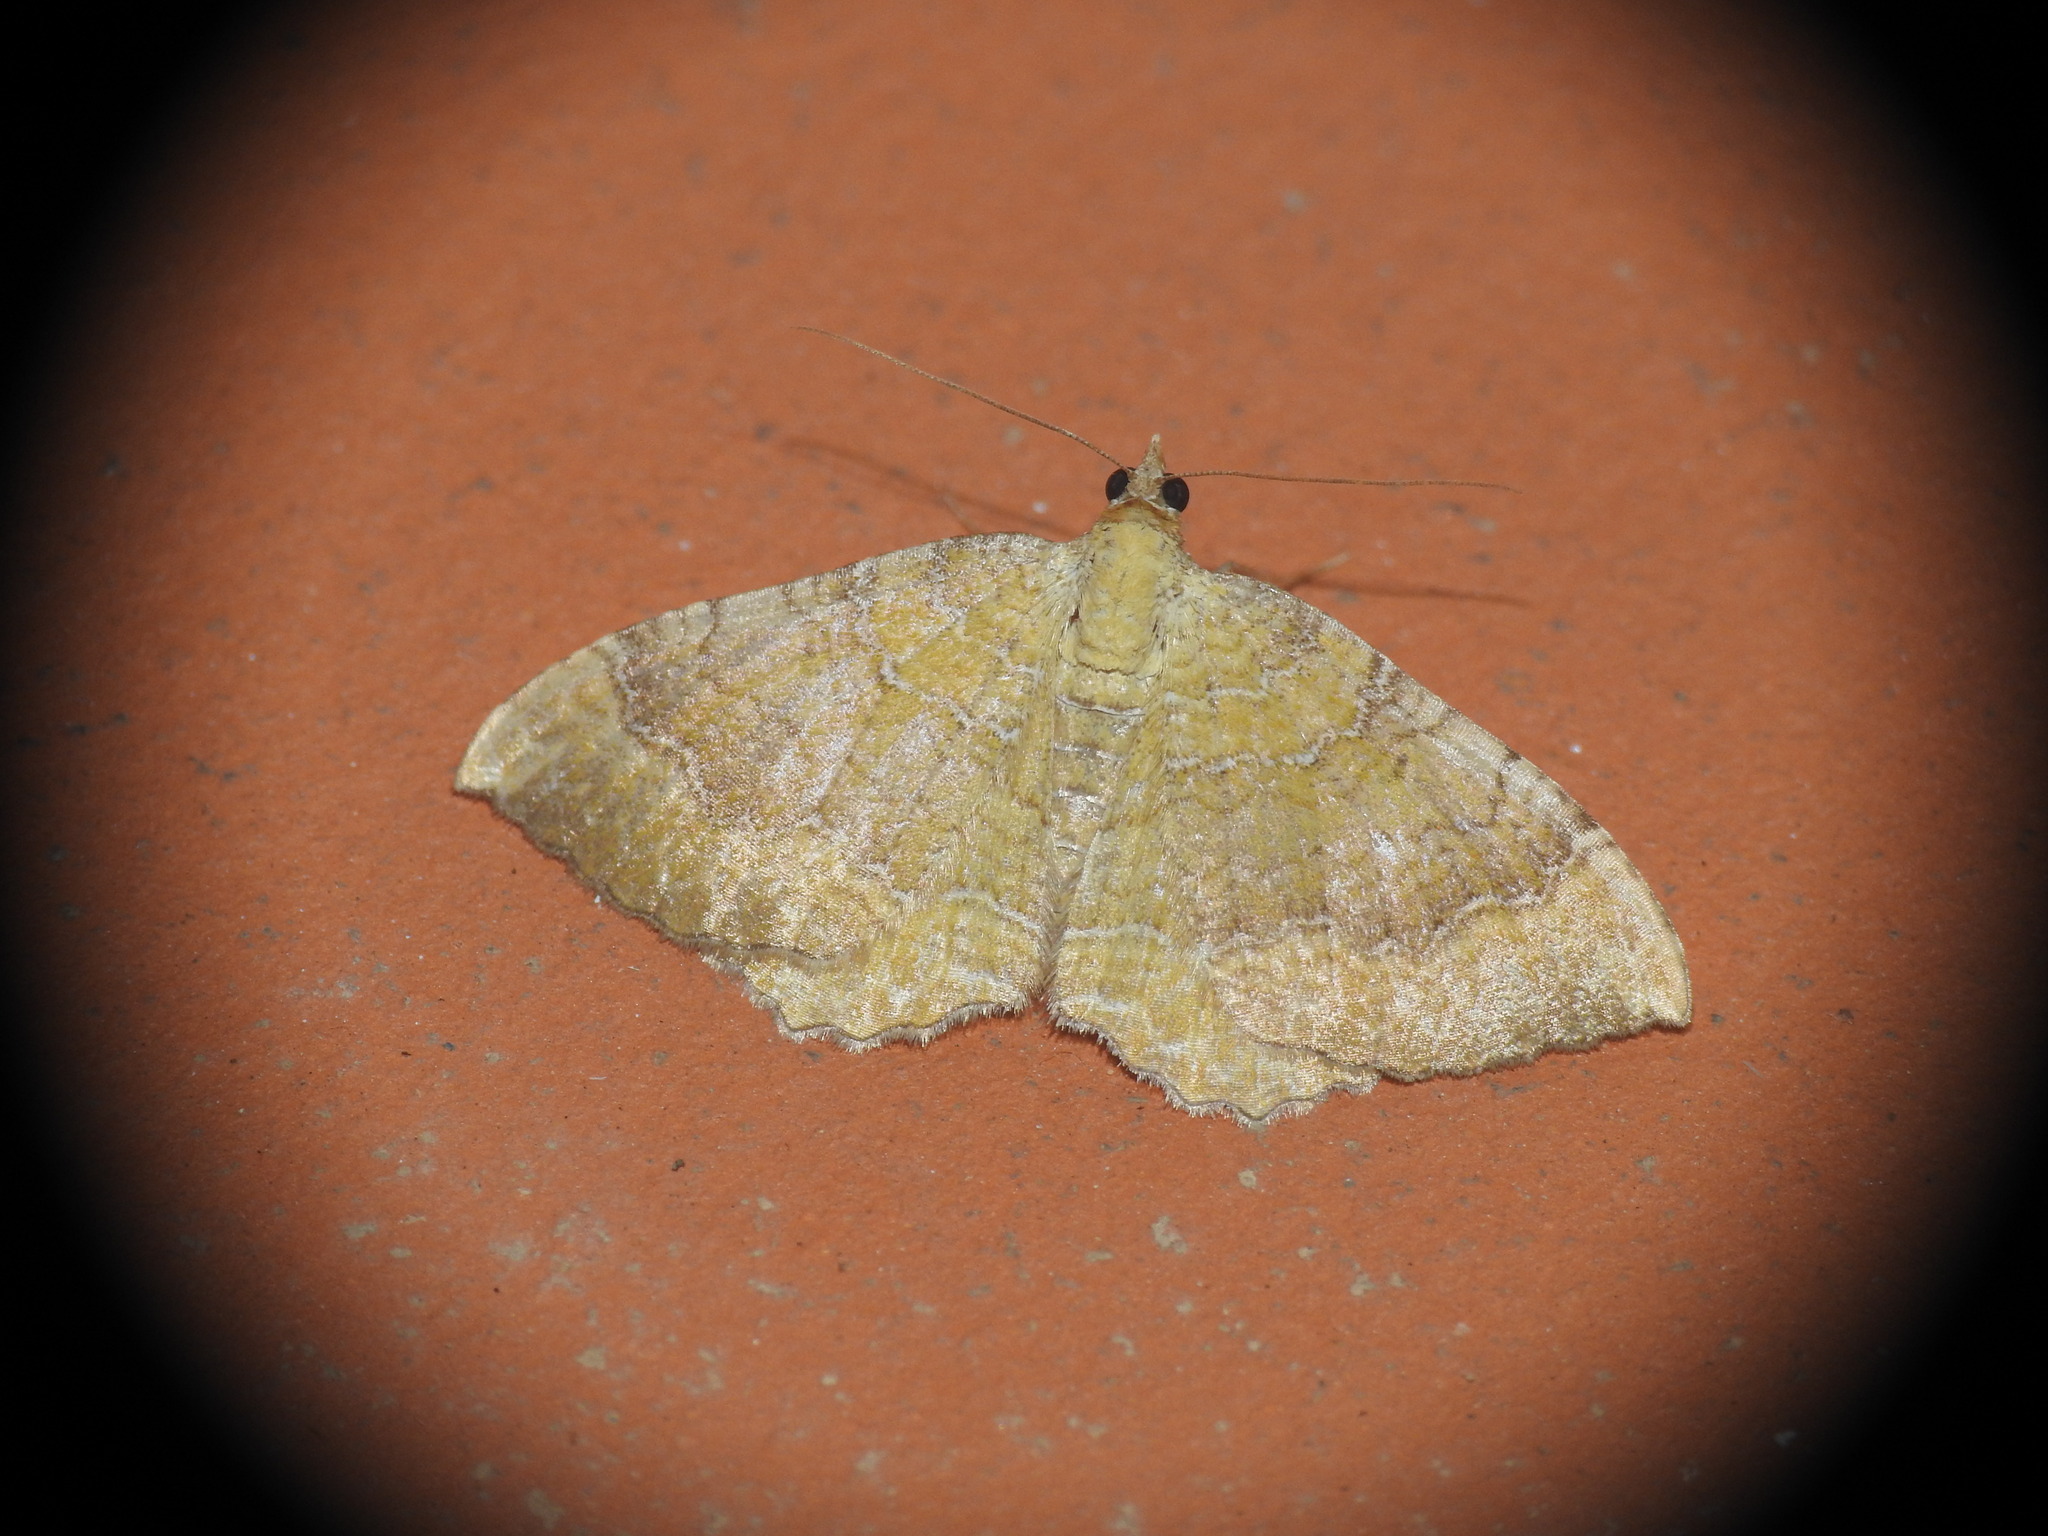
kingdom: Animalia
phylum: Arthropoda
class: Insecta
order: Lepidoptera
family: Geometridae
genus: Camptogramma
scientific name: Camptogramma bilineata
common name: Yellow shell
